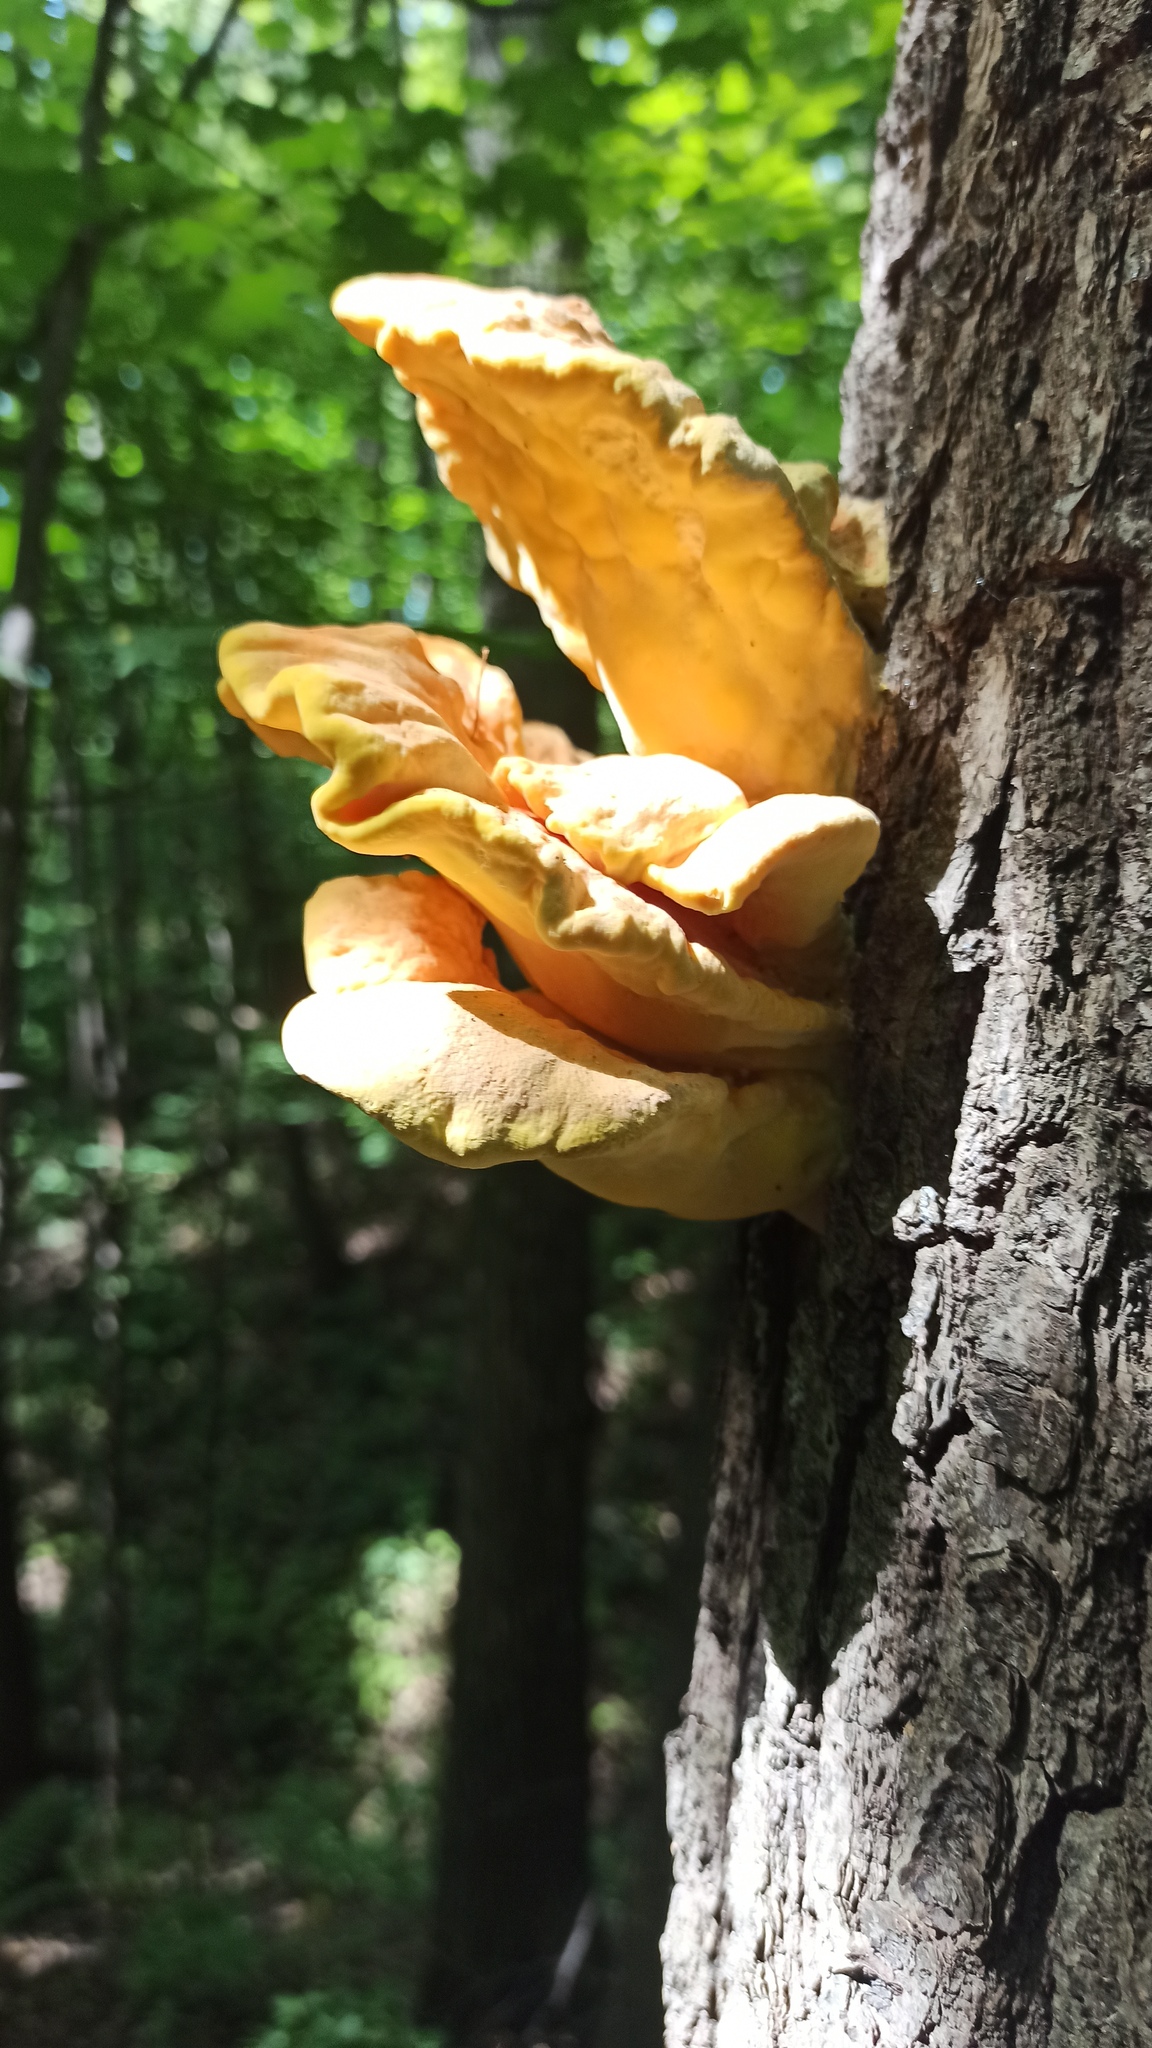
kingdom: Fungi
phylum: Basidiomycota
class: Agaricomycetes
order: Polyporales
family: Laetiporaceae
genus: Laetiporus
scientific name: Laetiporus sulphureus
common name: Chicken of the woods
